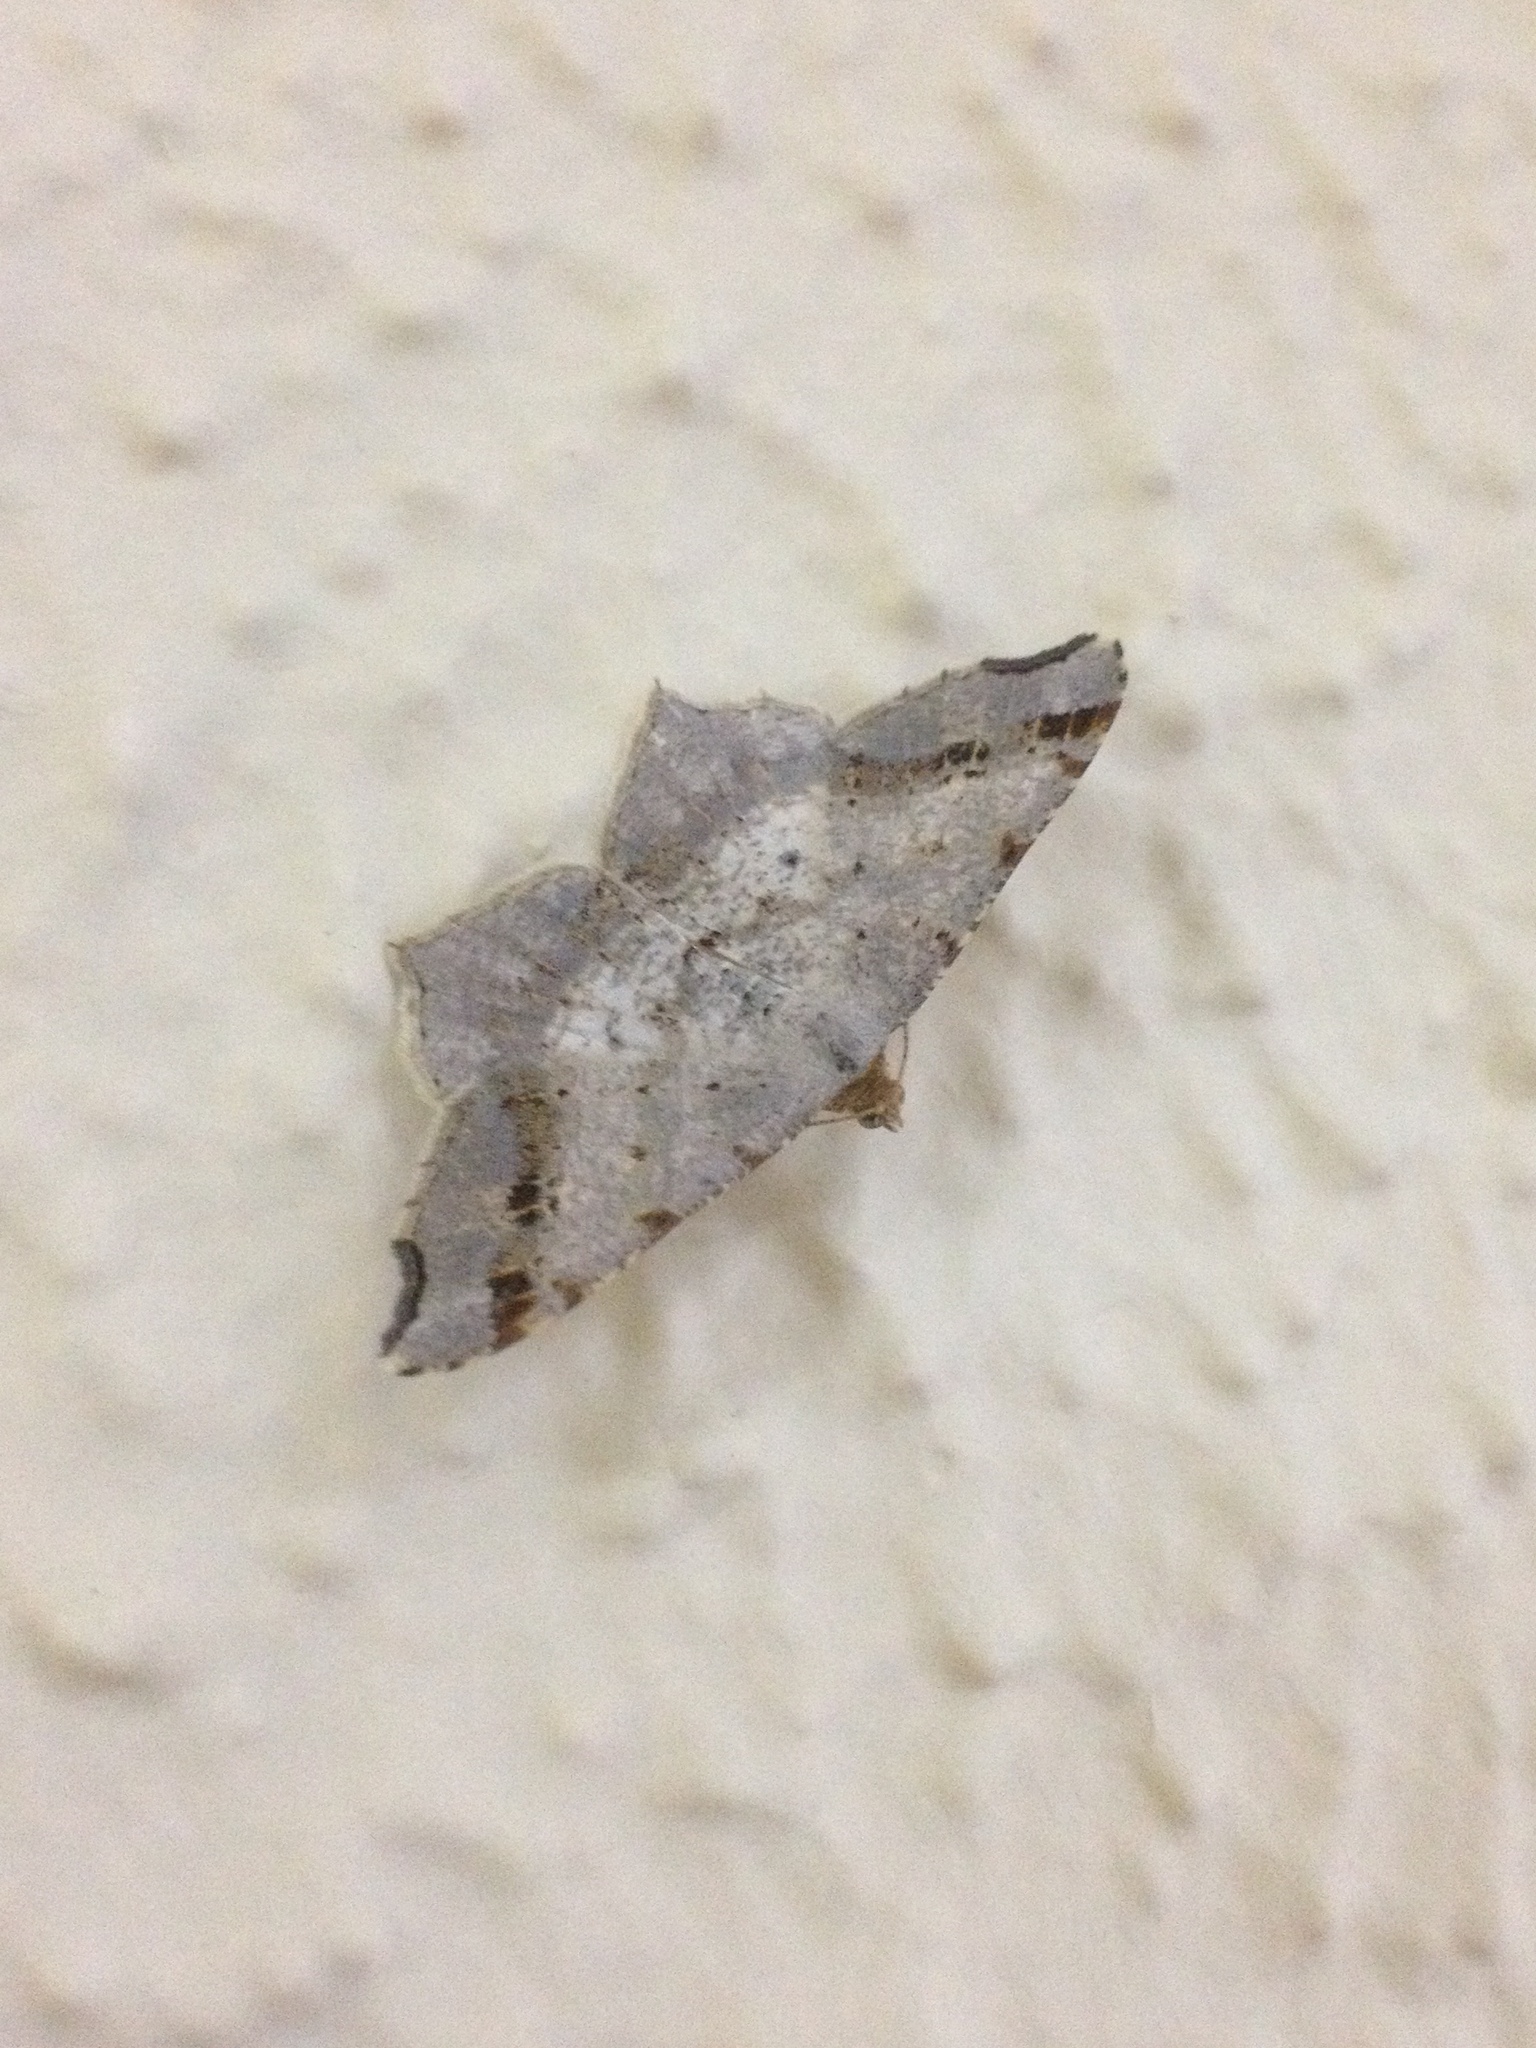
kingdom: Animalia
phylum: Arthropoda
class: Insecta
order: Lepidoptera
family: Geometridae
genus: Macaria
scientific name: Macaria alternata
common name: Sharp-angled peacock
